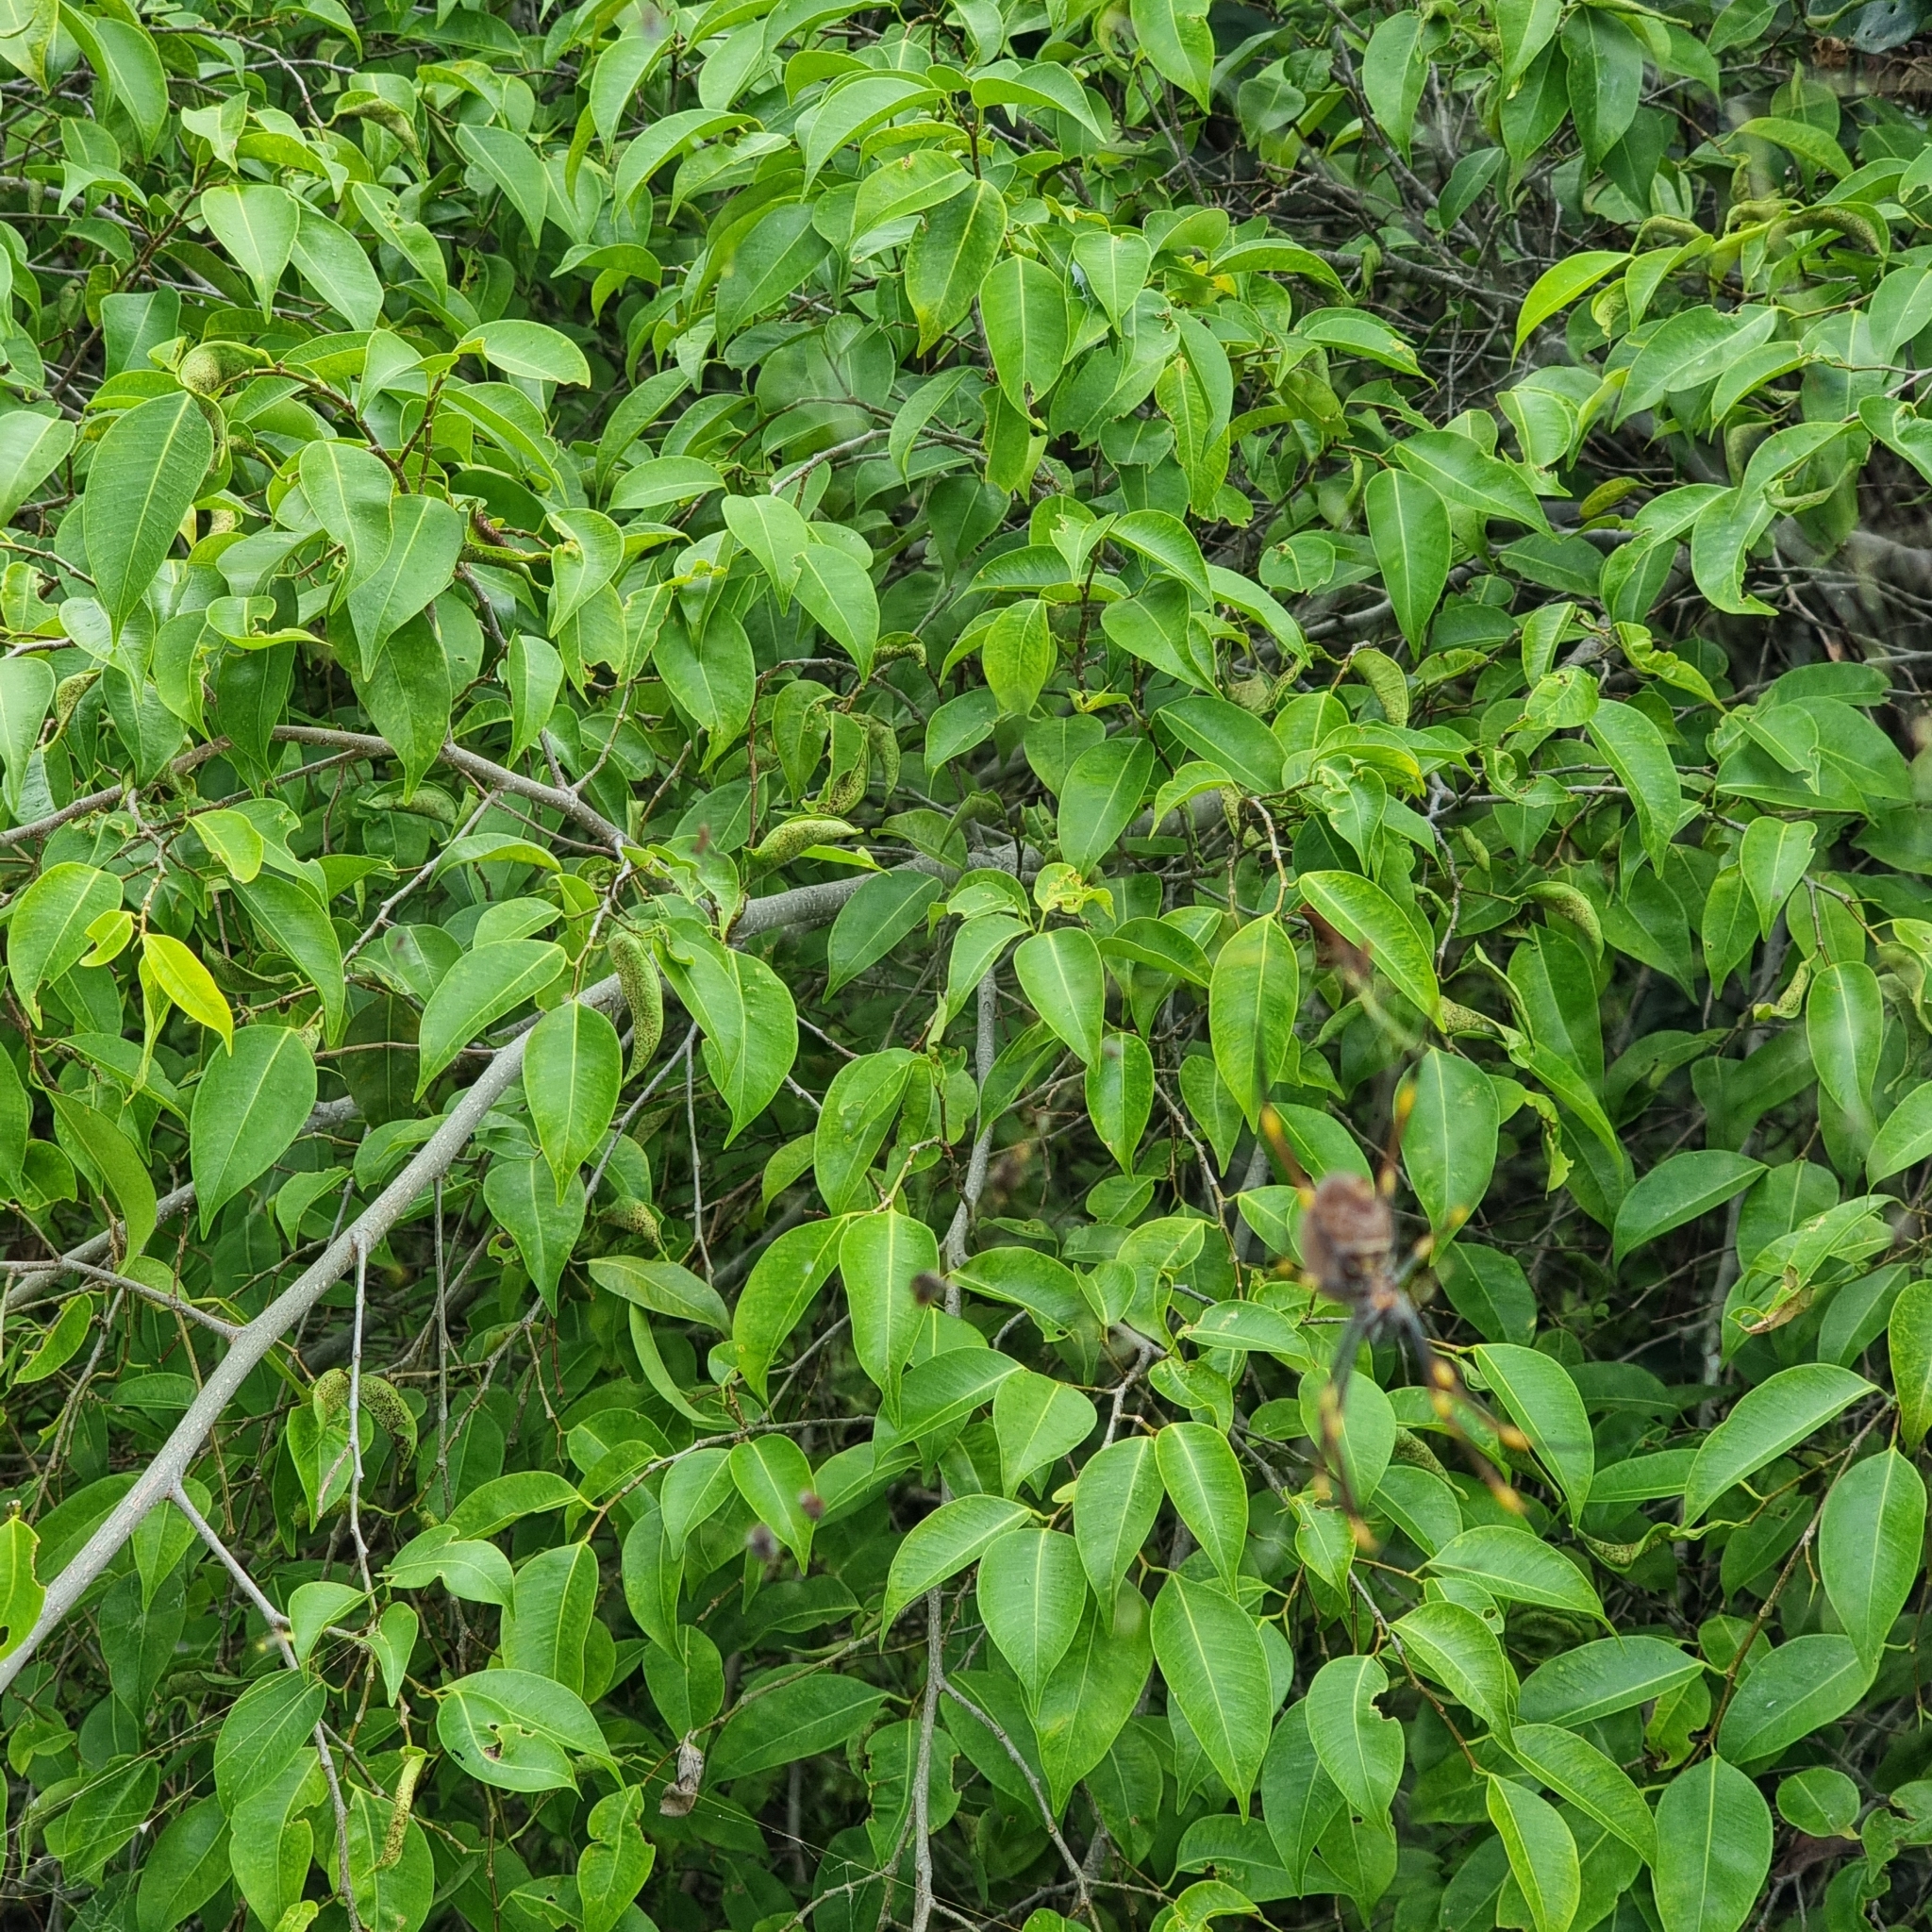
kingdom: Animalia
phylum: Arthropoda
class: Arachnida
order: Araneae
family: Araneidae
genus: Trichonephila
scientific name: Trichonephila plumipes
